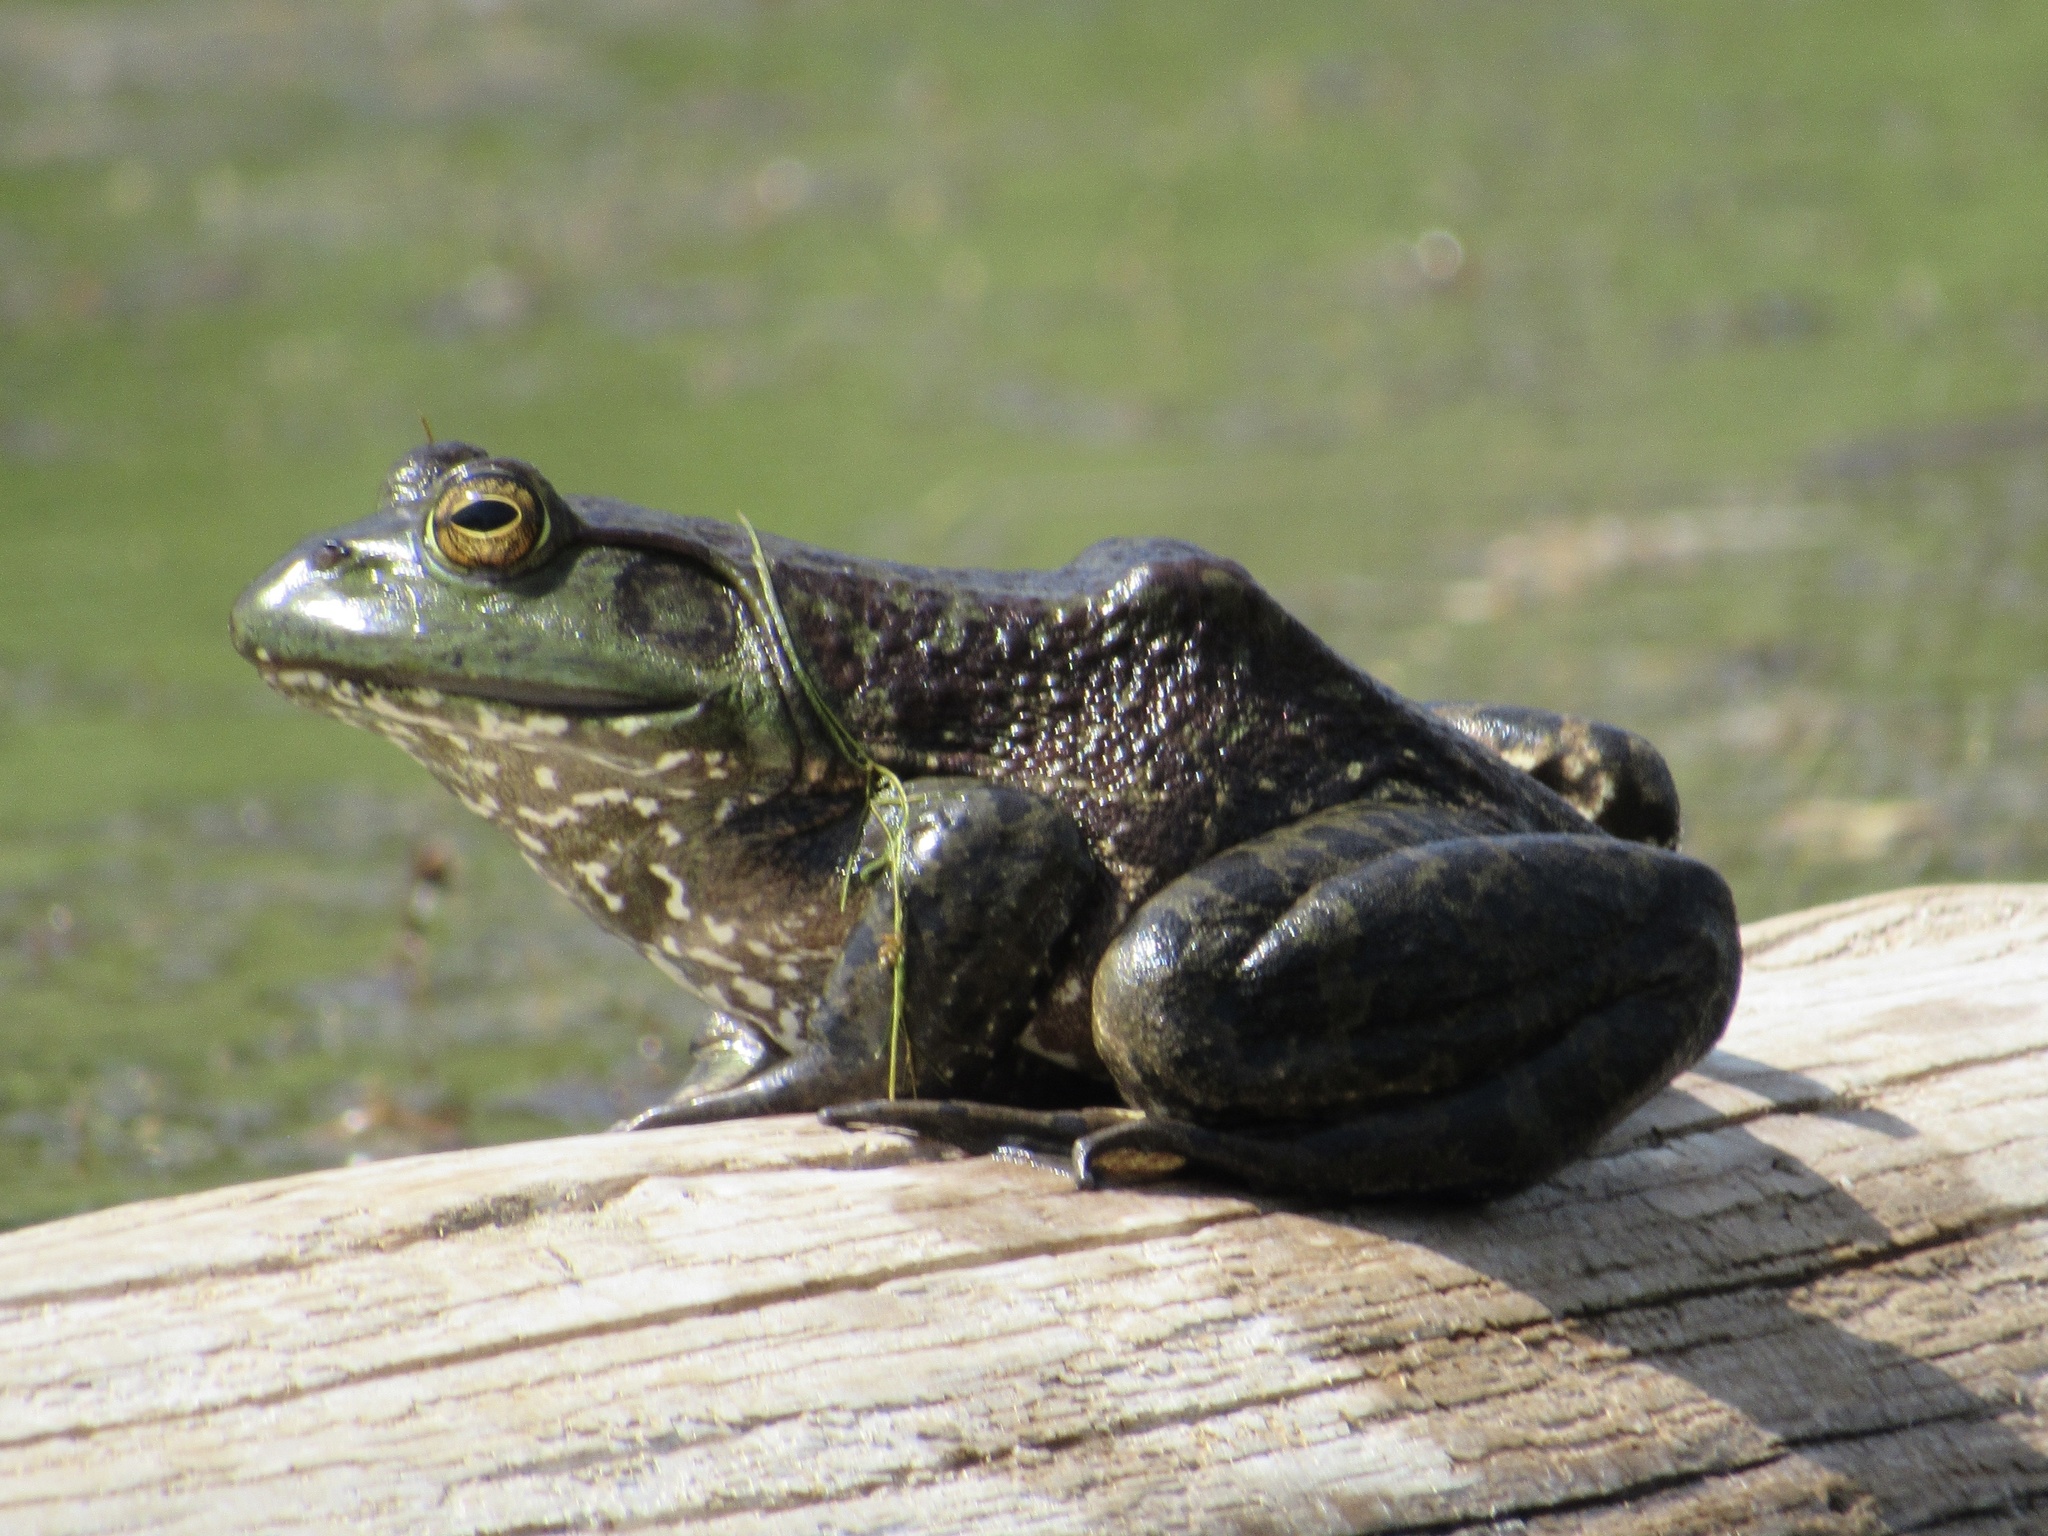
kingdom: Animalia
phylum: Chordata
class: Amphibia
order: Anura
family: Ranidae
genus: Lithobates
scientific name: Lithobates catesbeianus
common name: American bullfrog
